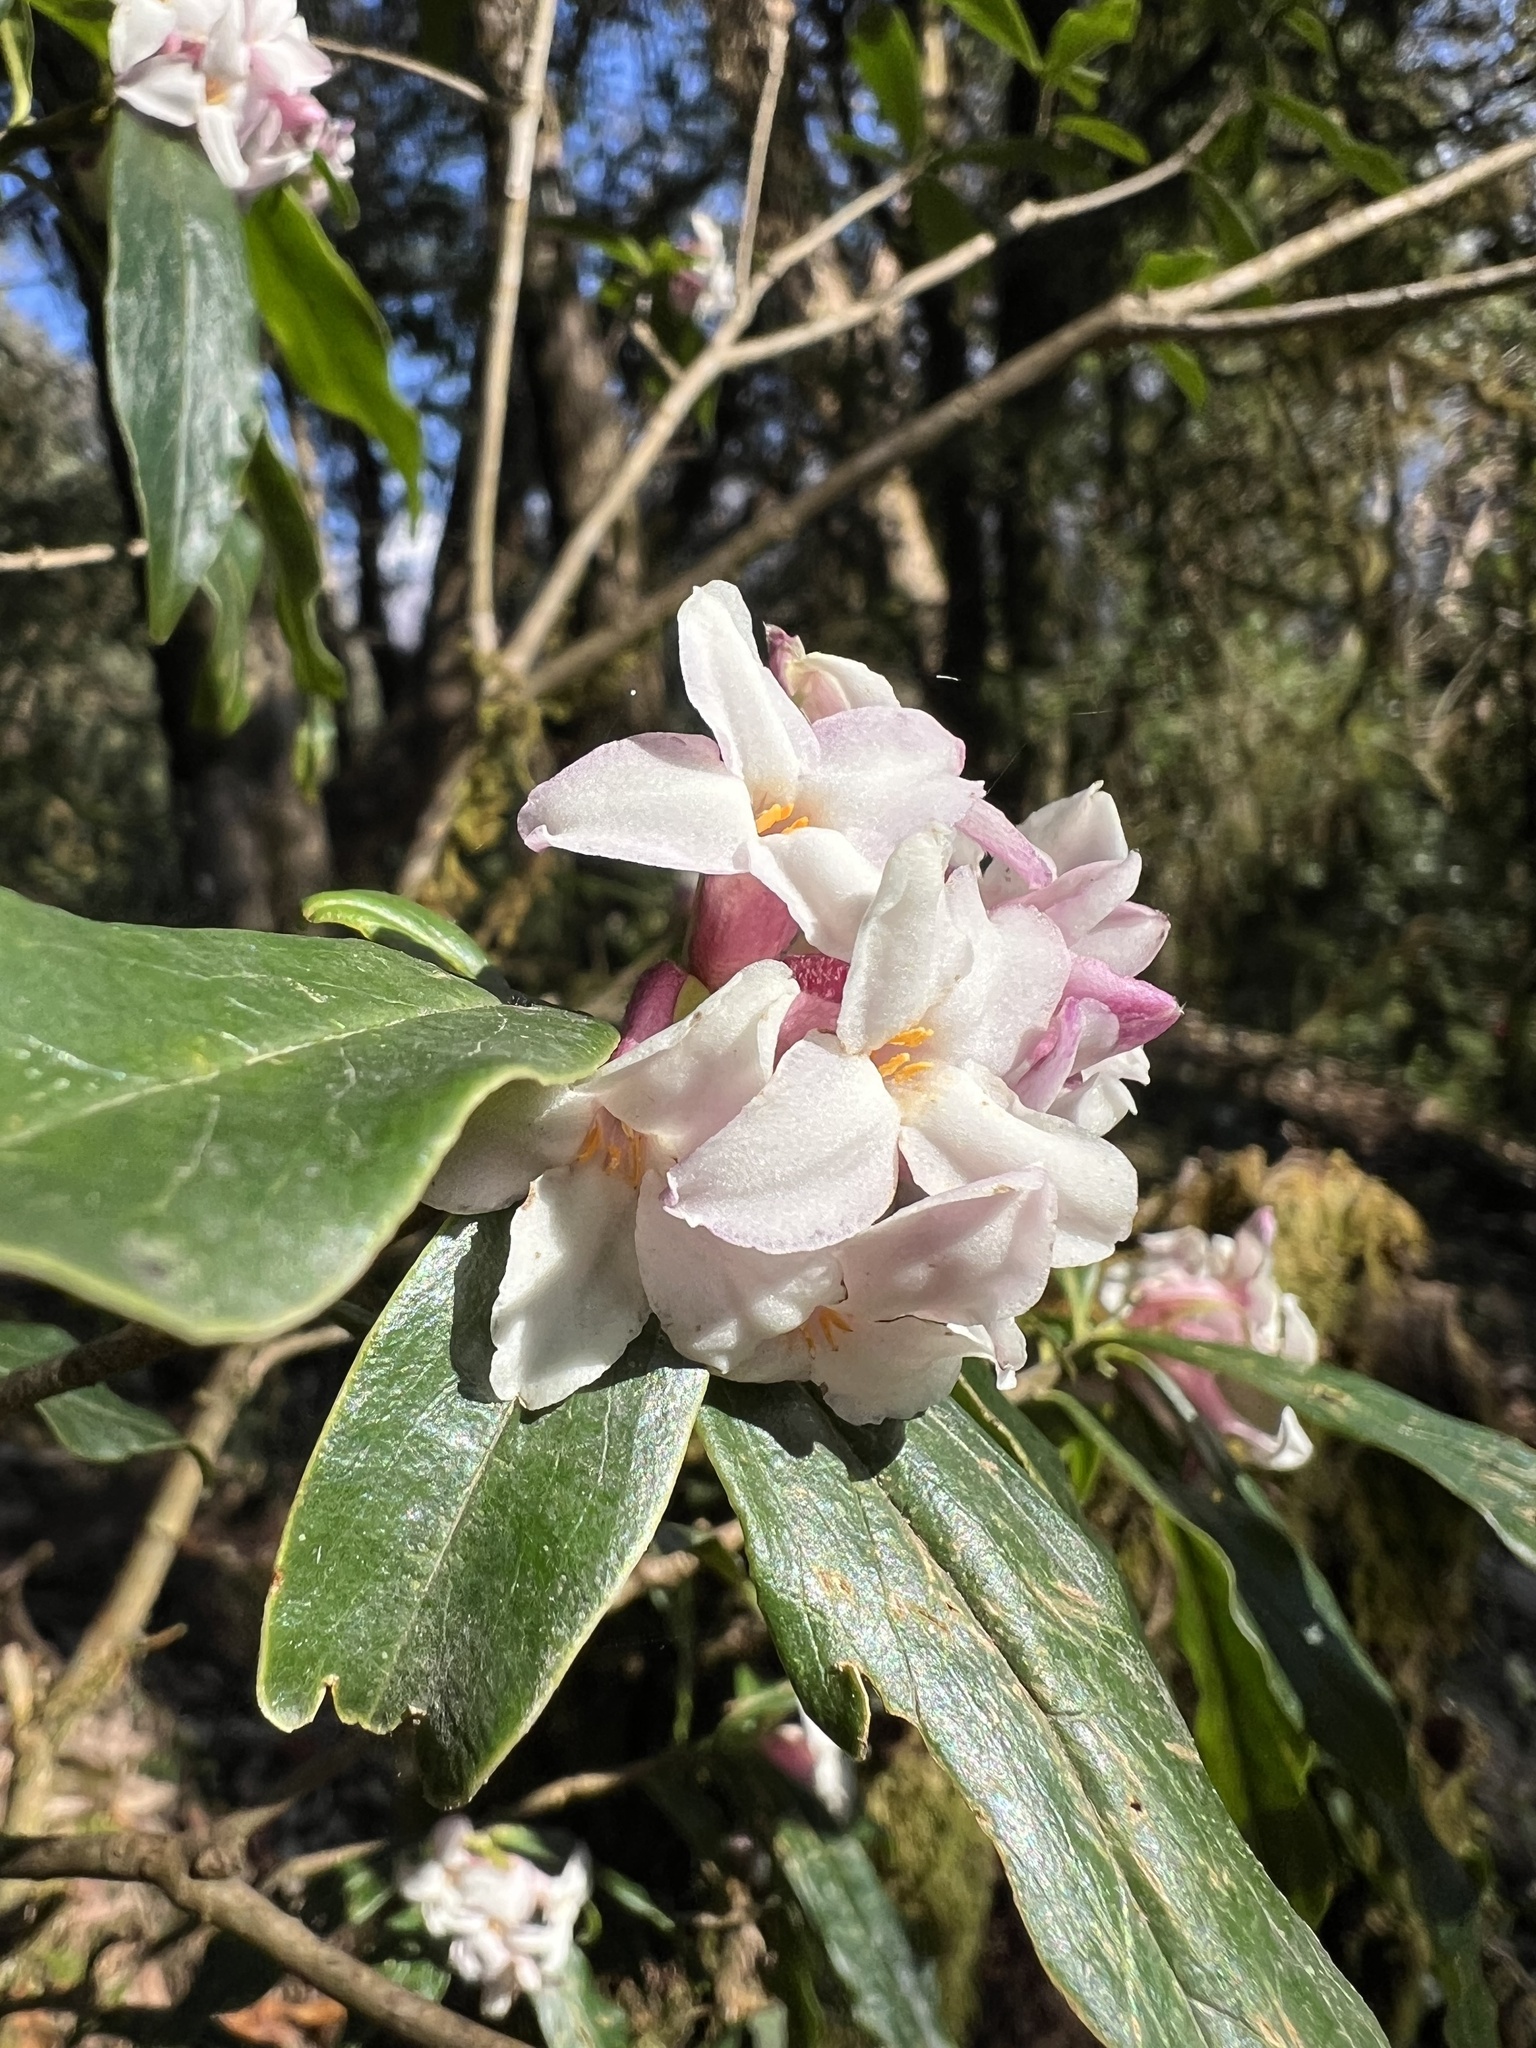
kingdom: Plantae
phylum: Tracheophyta
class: Magnoliopsida
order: Malvales
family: Thymelaeaceae
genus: Daphne
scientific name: Daphne bholua
